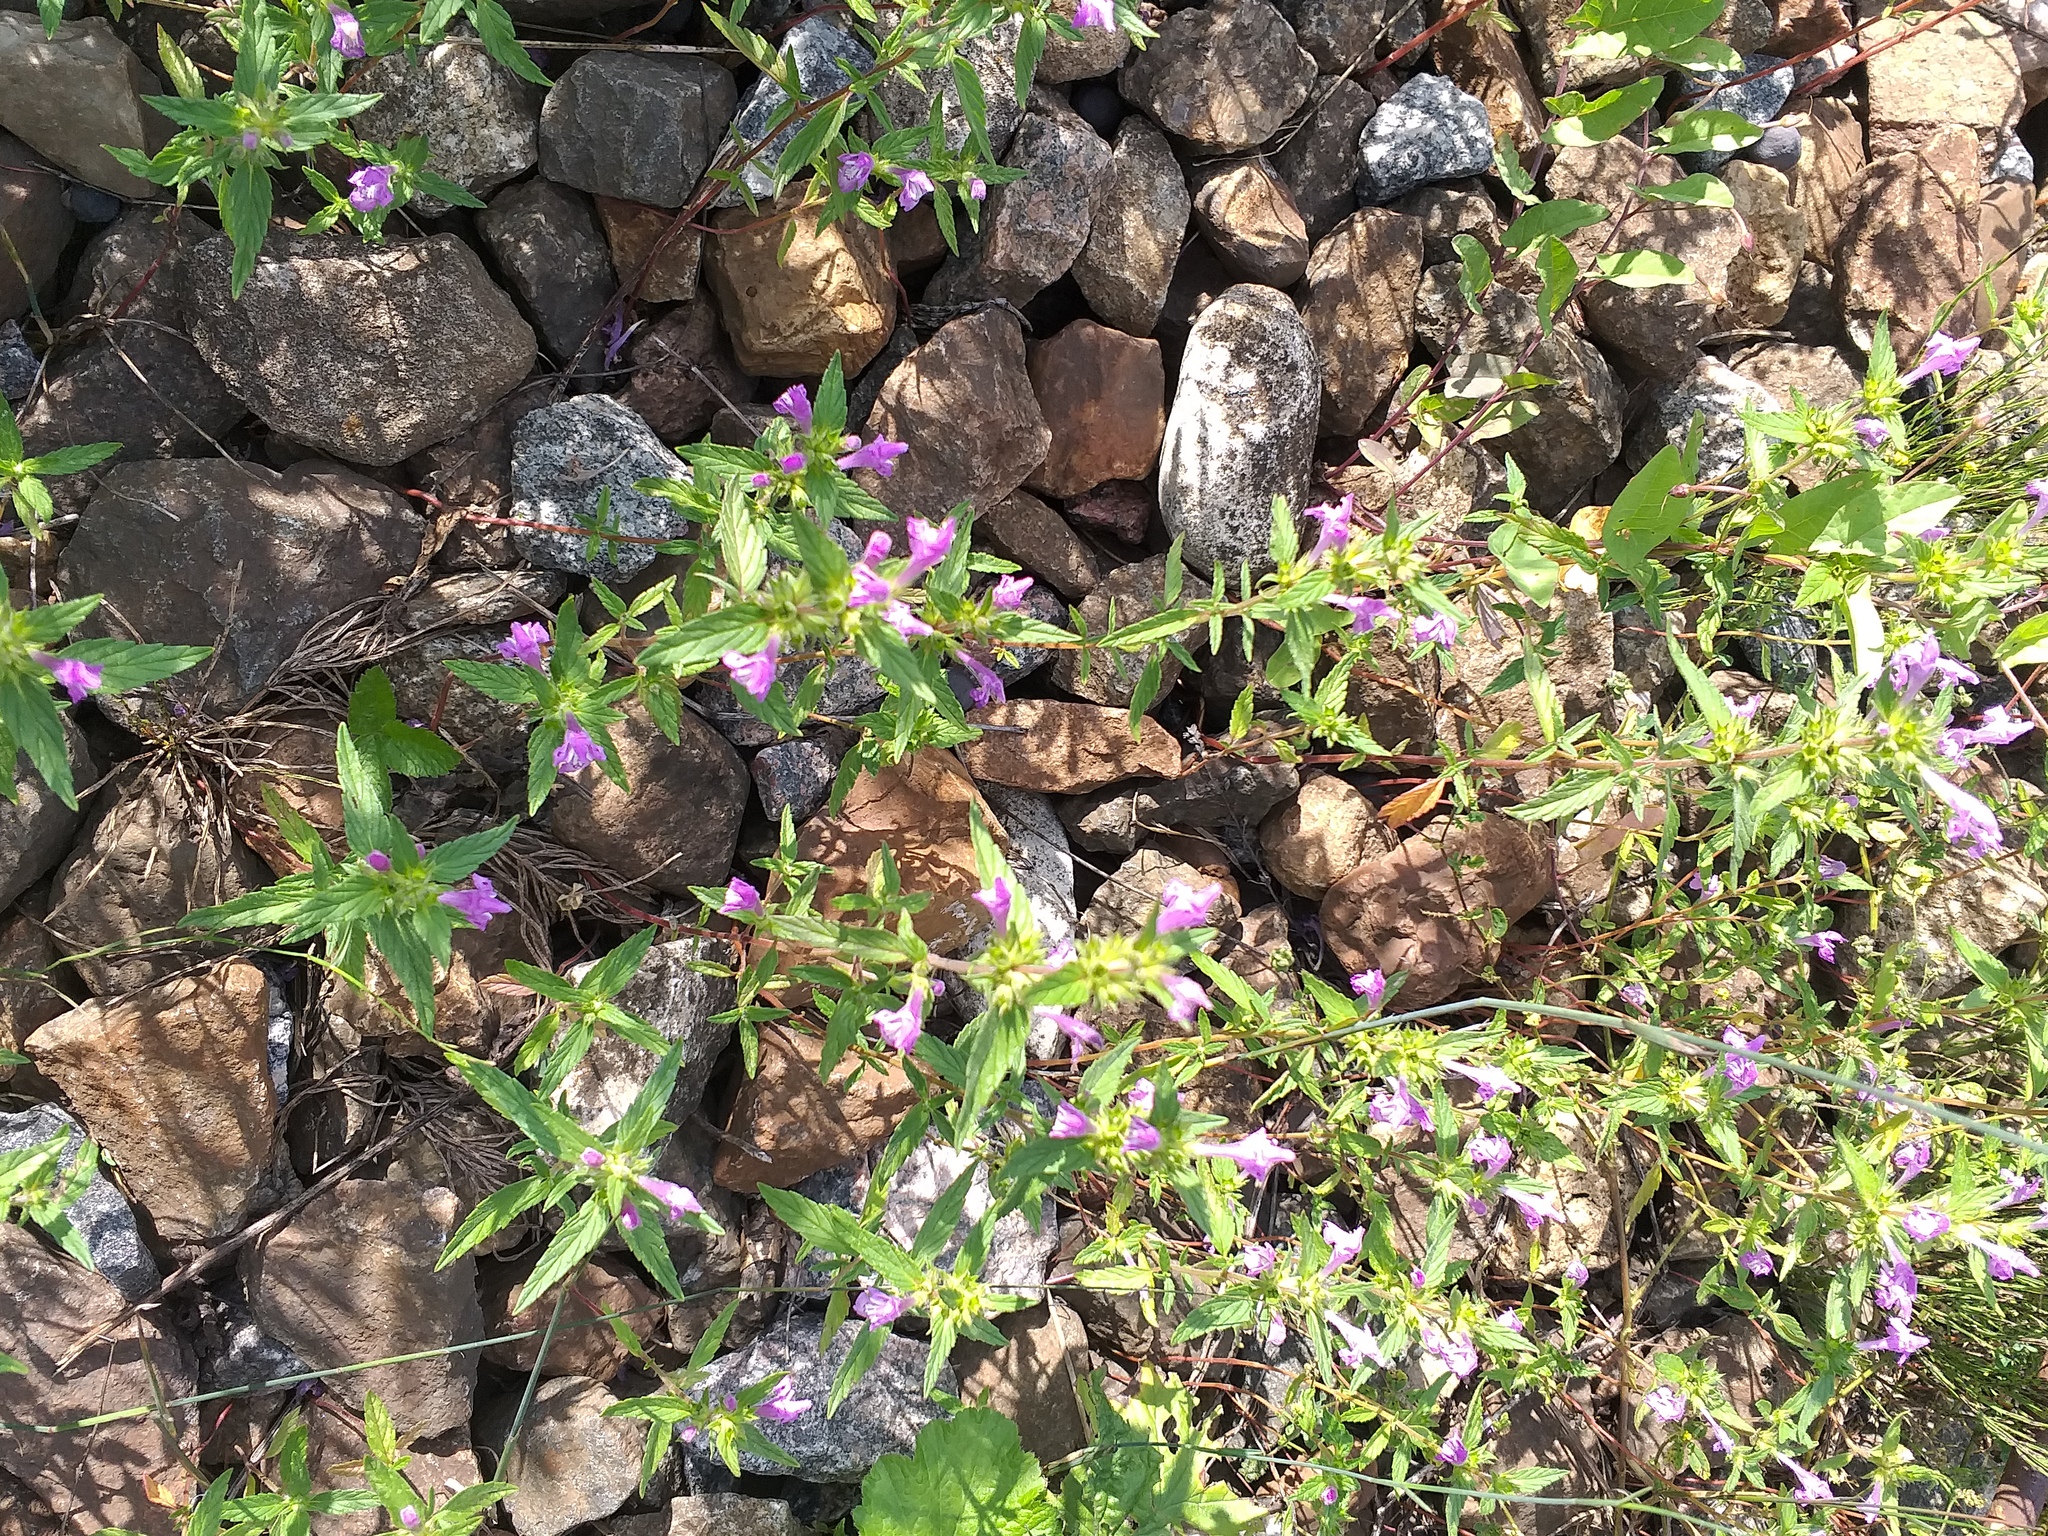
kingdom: Plantae
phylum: Tracheophyta
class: Magnoliopsida
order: Lamiales
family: Lamiaceae
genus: Galeopsis
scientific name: Galeopsis ladanum
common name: Broad-leaved hemp-nettle
